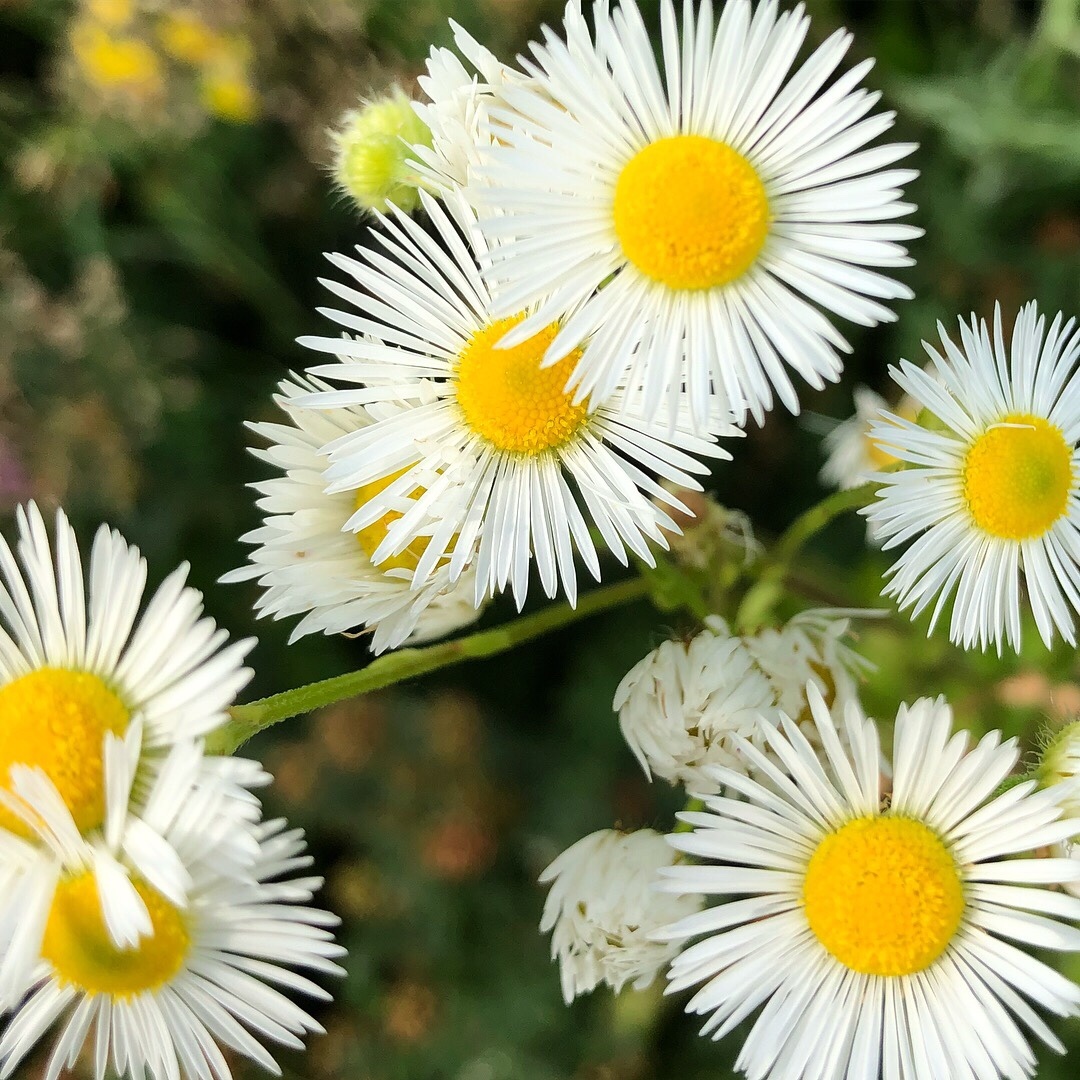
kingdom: Plantae
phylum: Tracheophyta
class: Magnoliopsida
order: Asterales
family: Asteraceae
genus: Erigeron
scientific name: Erigeron annuus
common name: Tall fleabane
